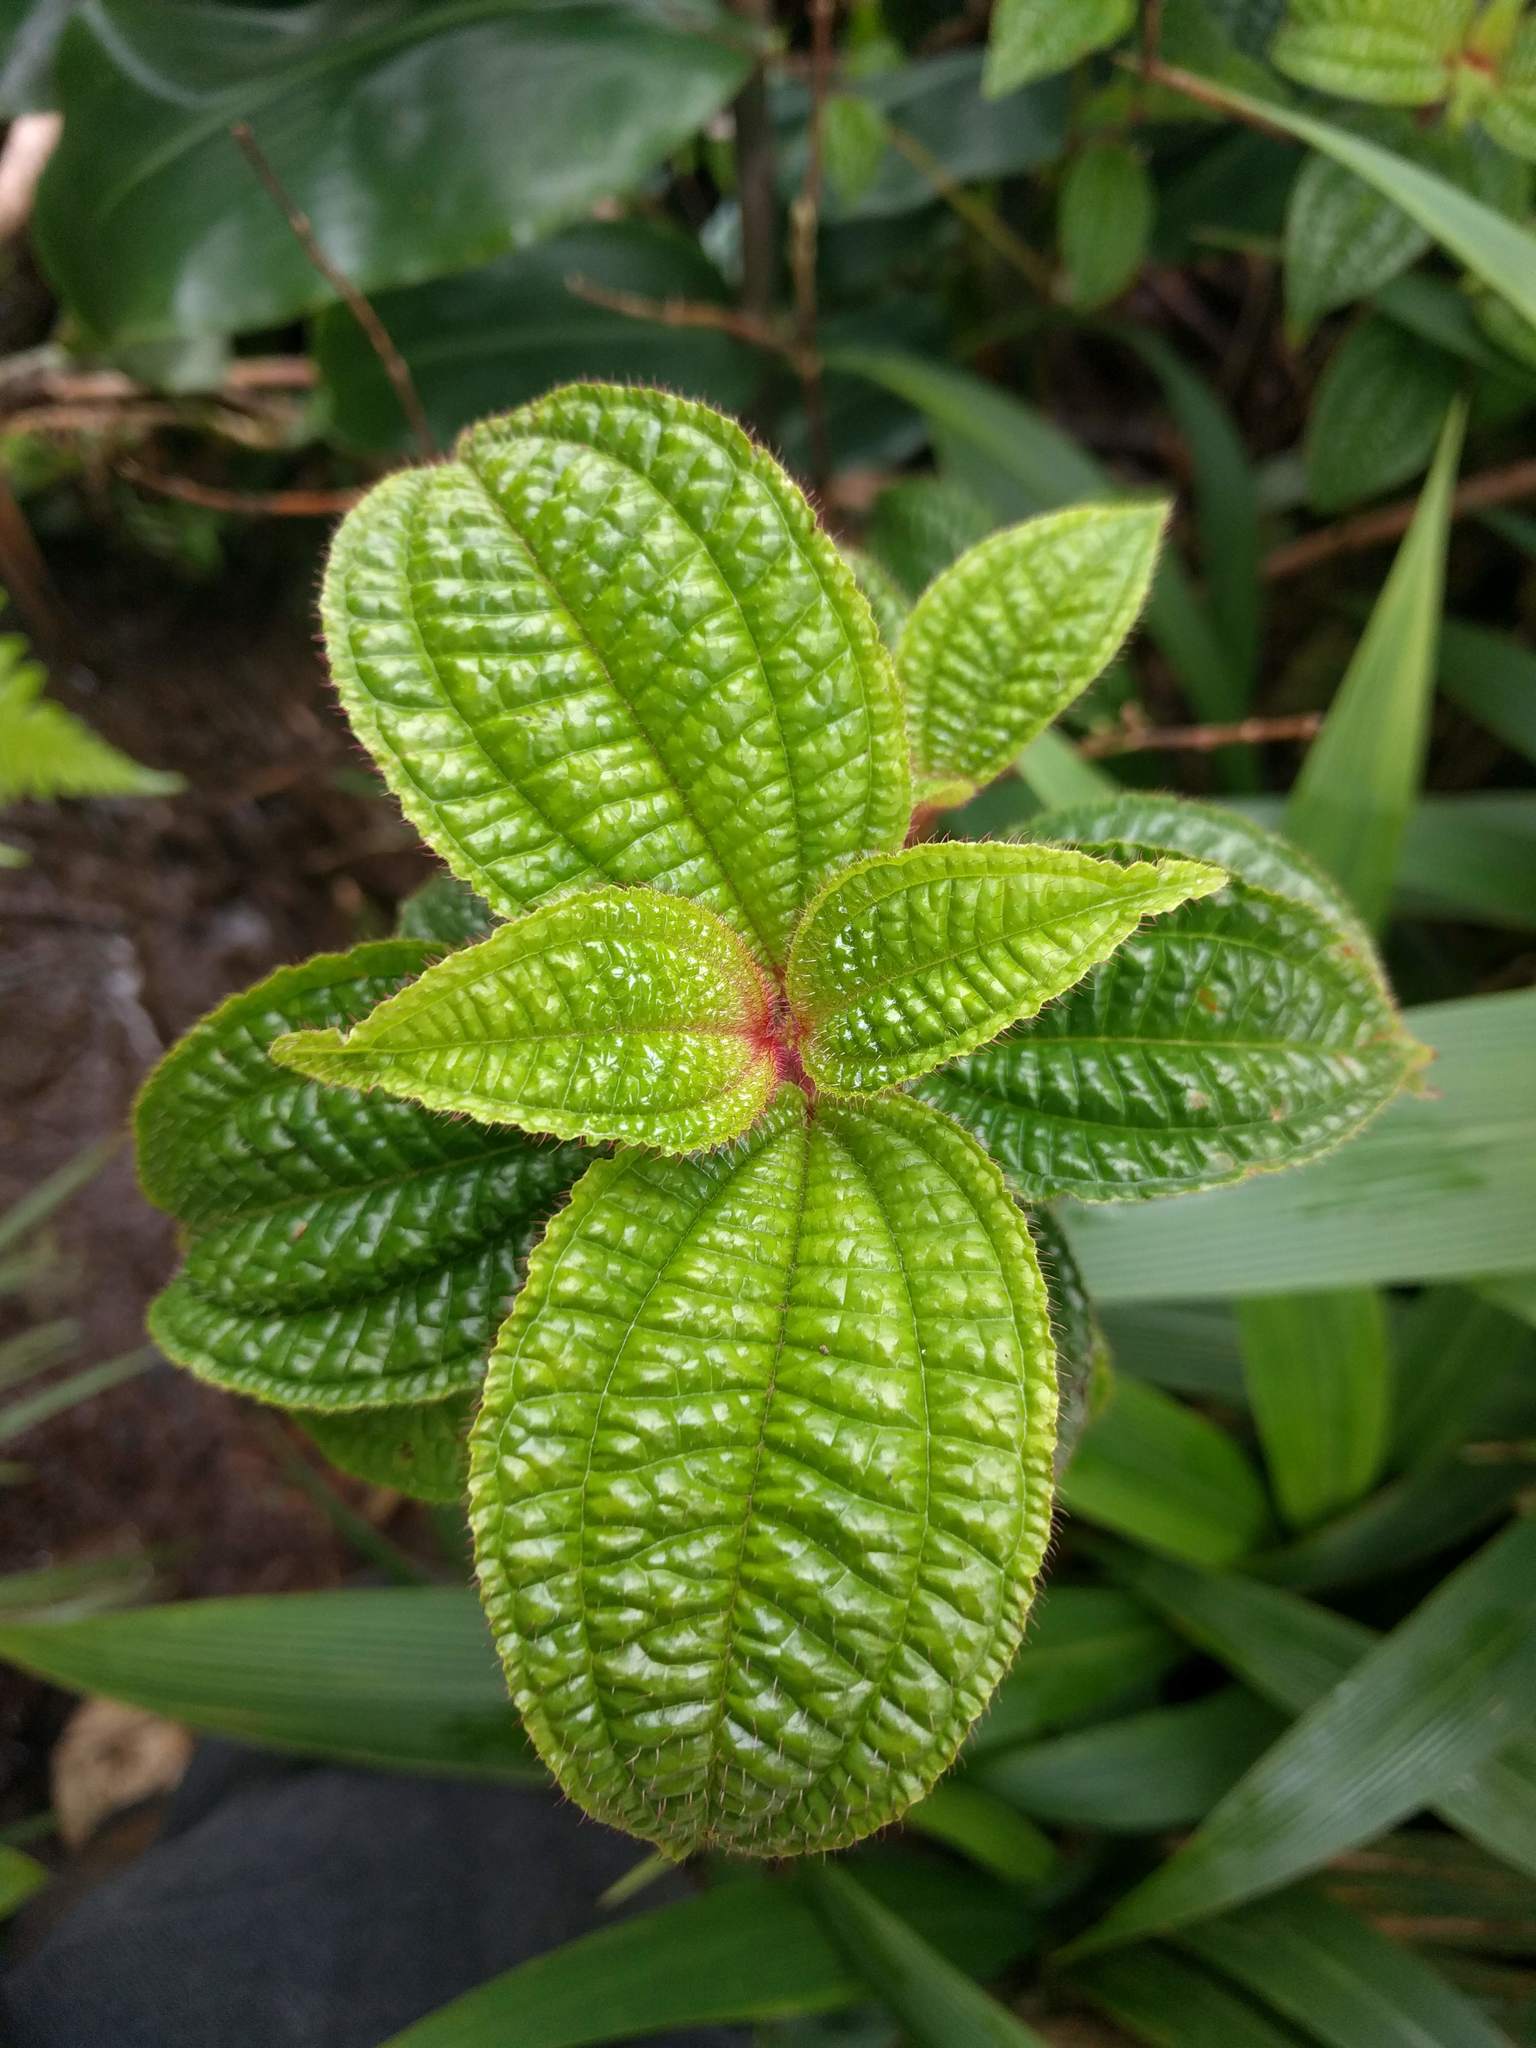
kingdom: Plantae
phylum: Tracheophyta
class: Magnoliopsida
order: Myrtales
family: Melastomataceae
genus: Miconia
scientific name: Miconia crenata
